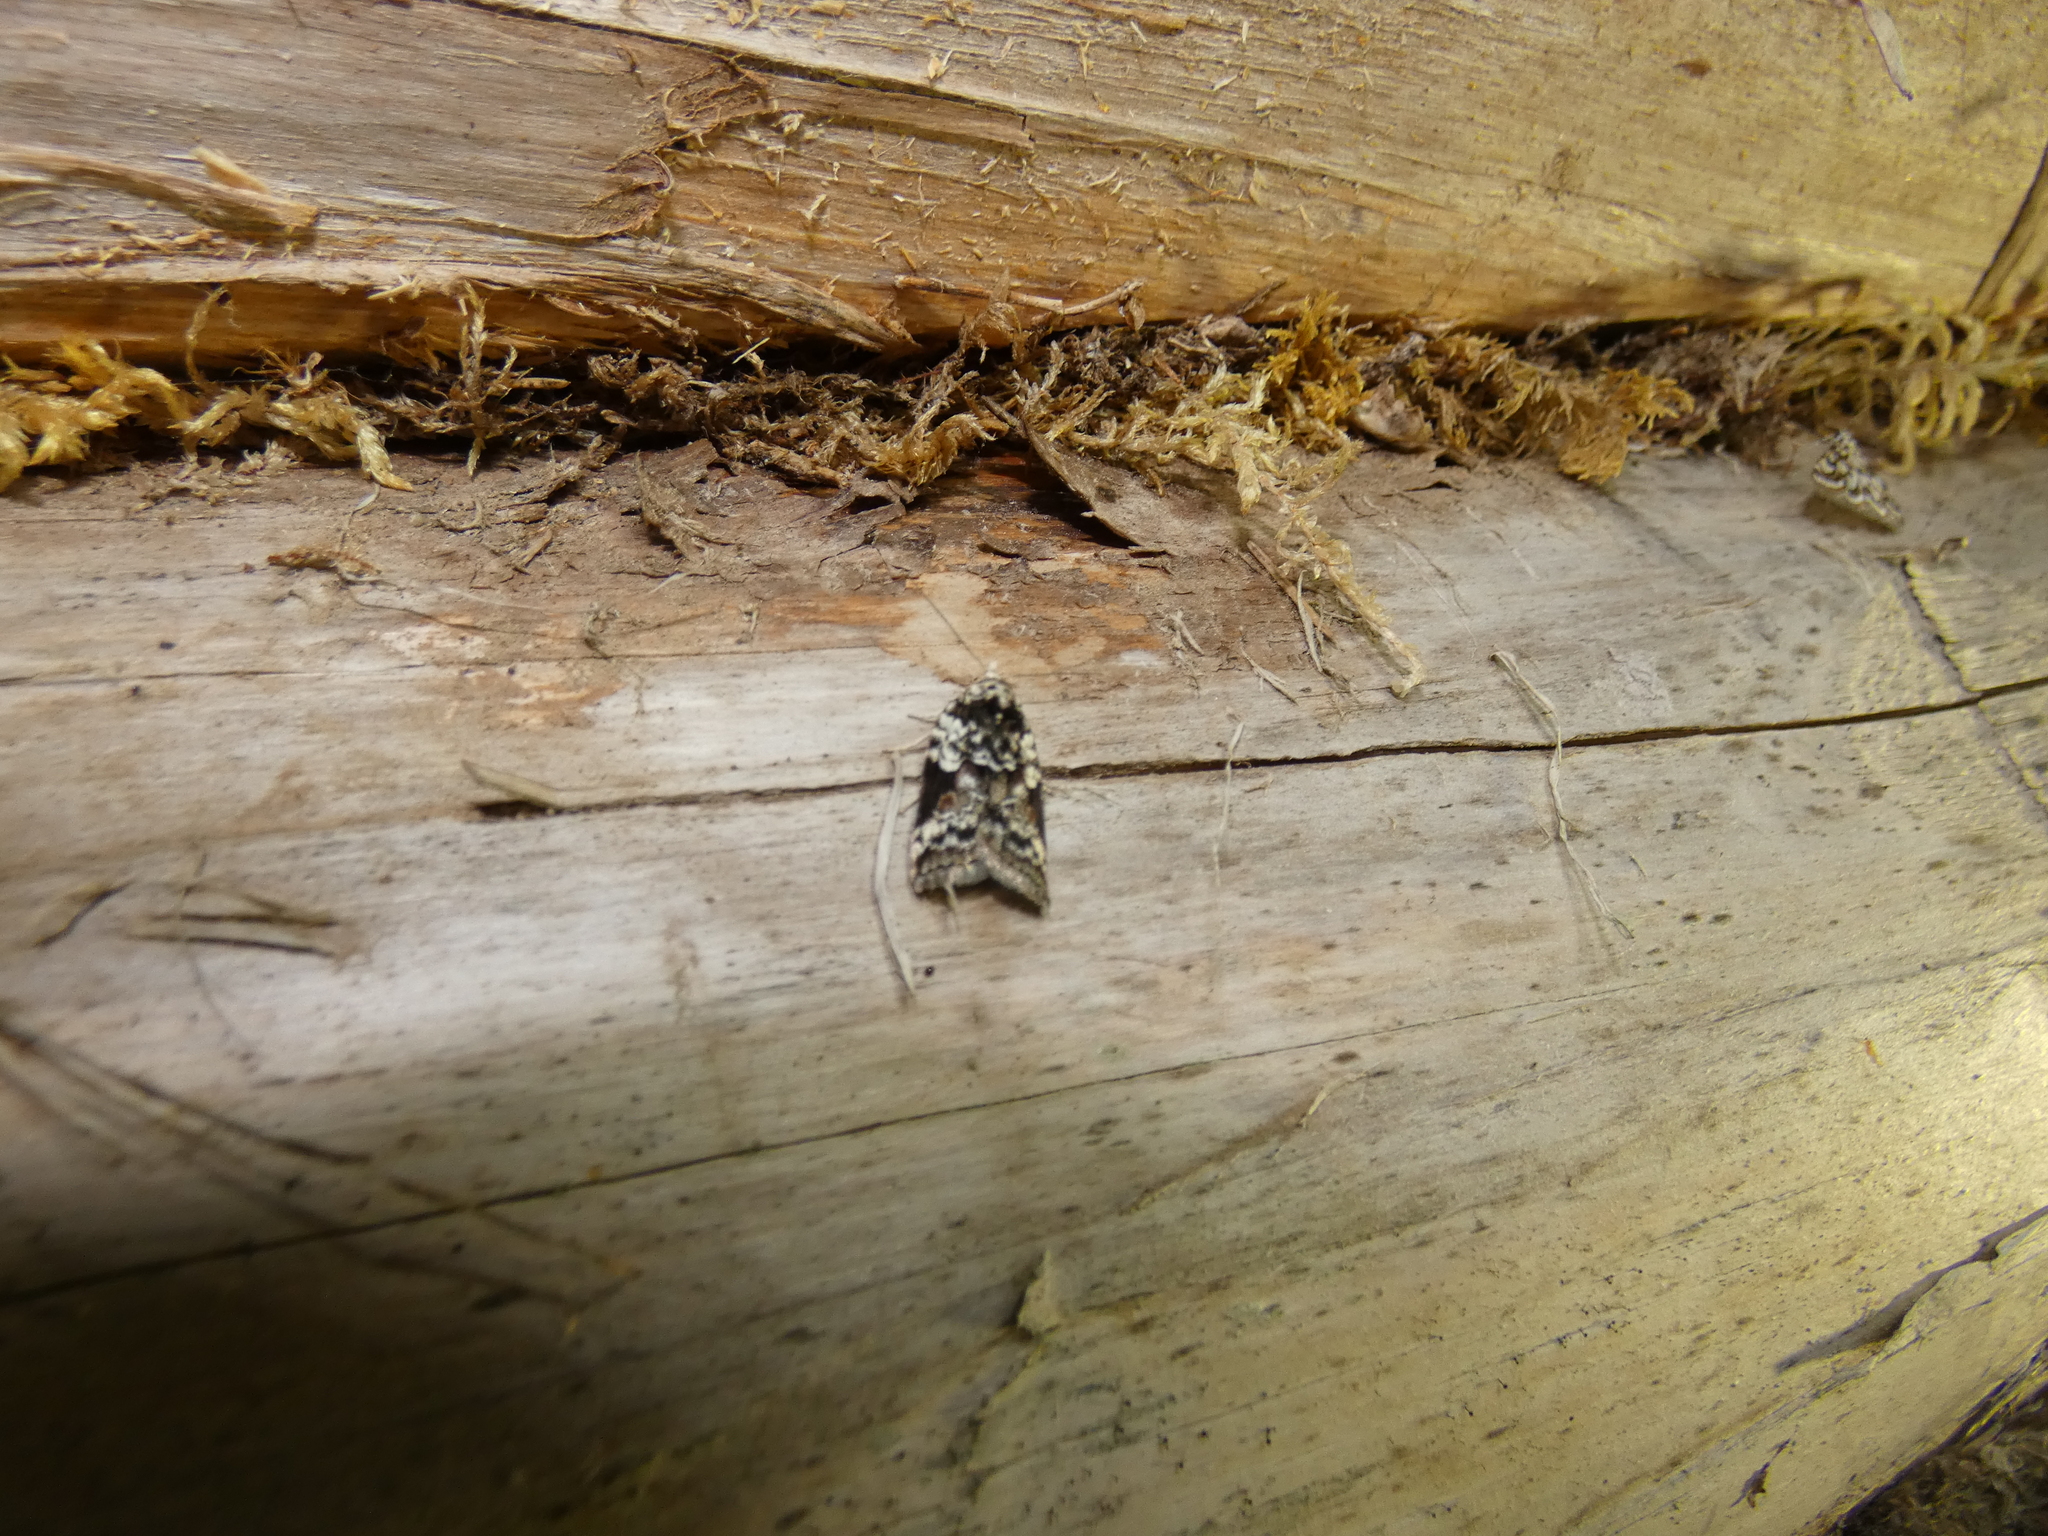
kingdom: Animalia
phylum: Arthropoda
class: Insecta
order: Lepidoptera
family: Nolidae
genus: Nycteola
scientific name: Nycteola degenerana
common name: Swallow nycteoline
